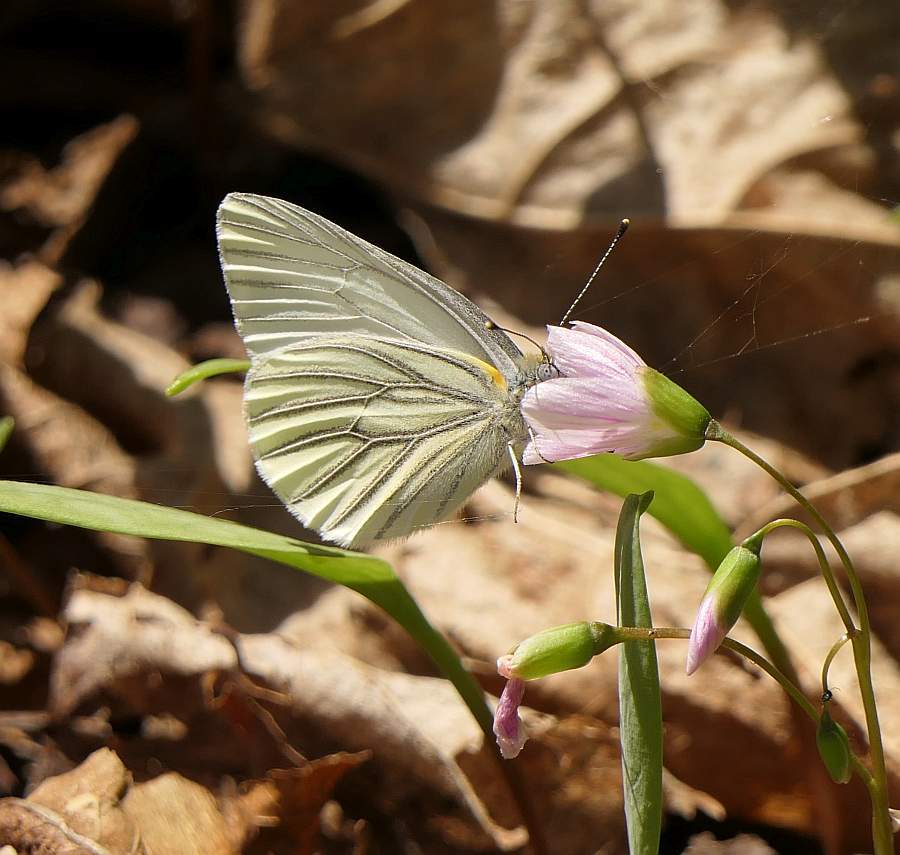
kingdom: Animalia
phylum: Arthropoda
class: Insecta
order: Lepidoptera
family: Pieridae
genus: Pieris
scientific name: Pieris oleracea
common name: Mustard white
